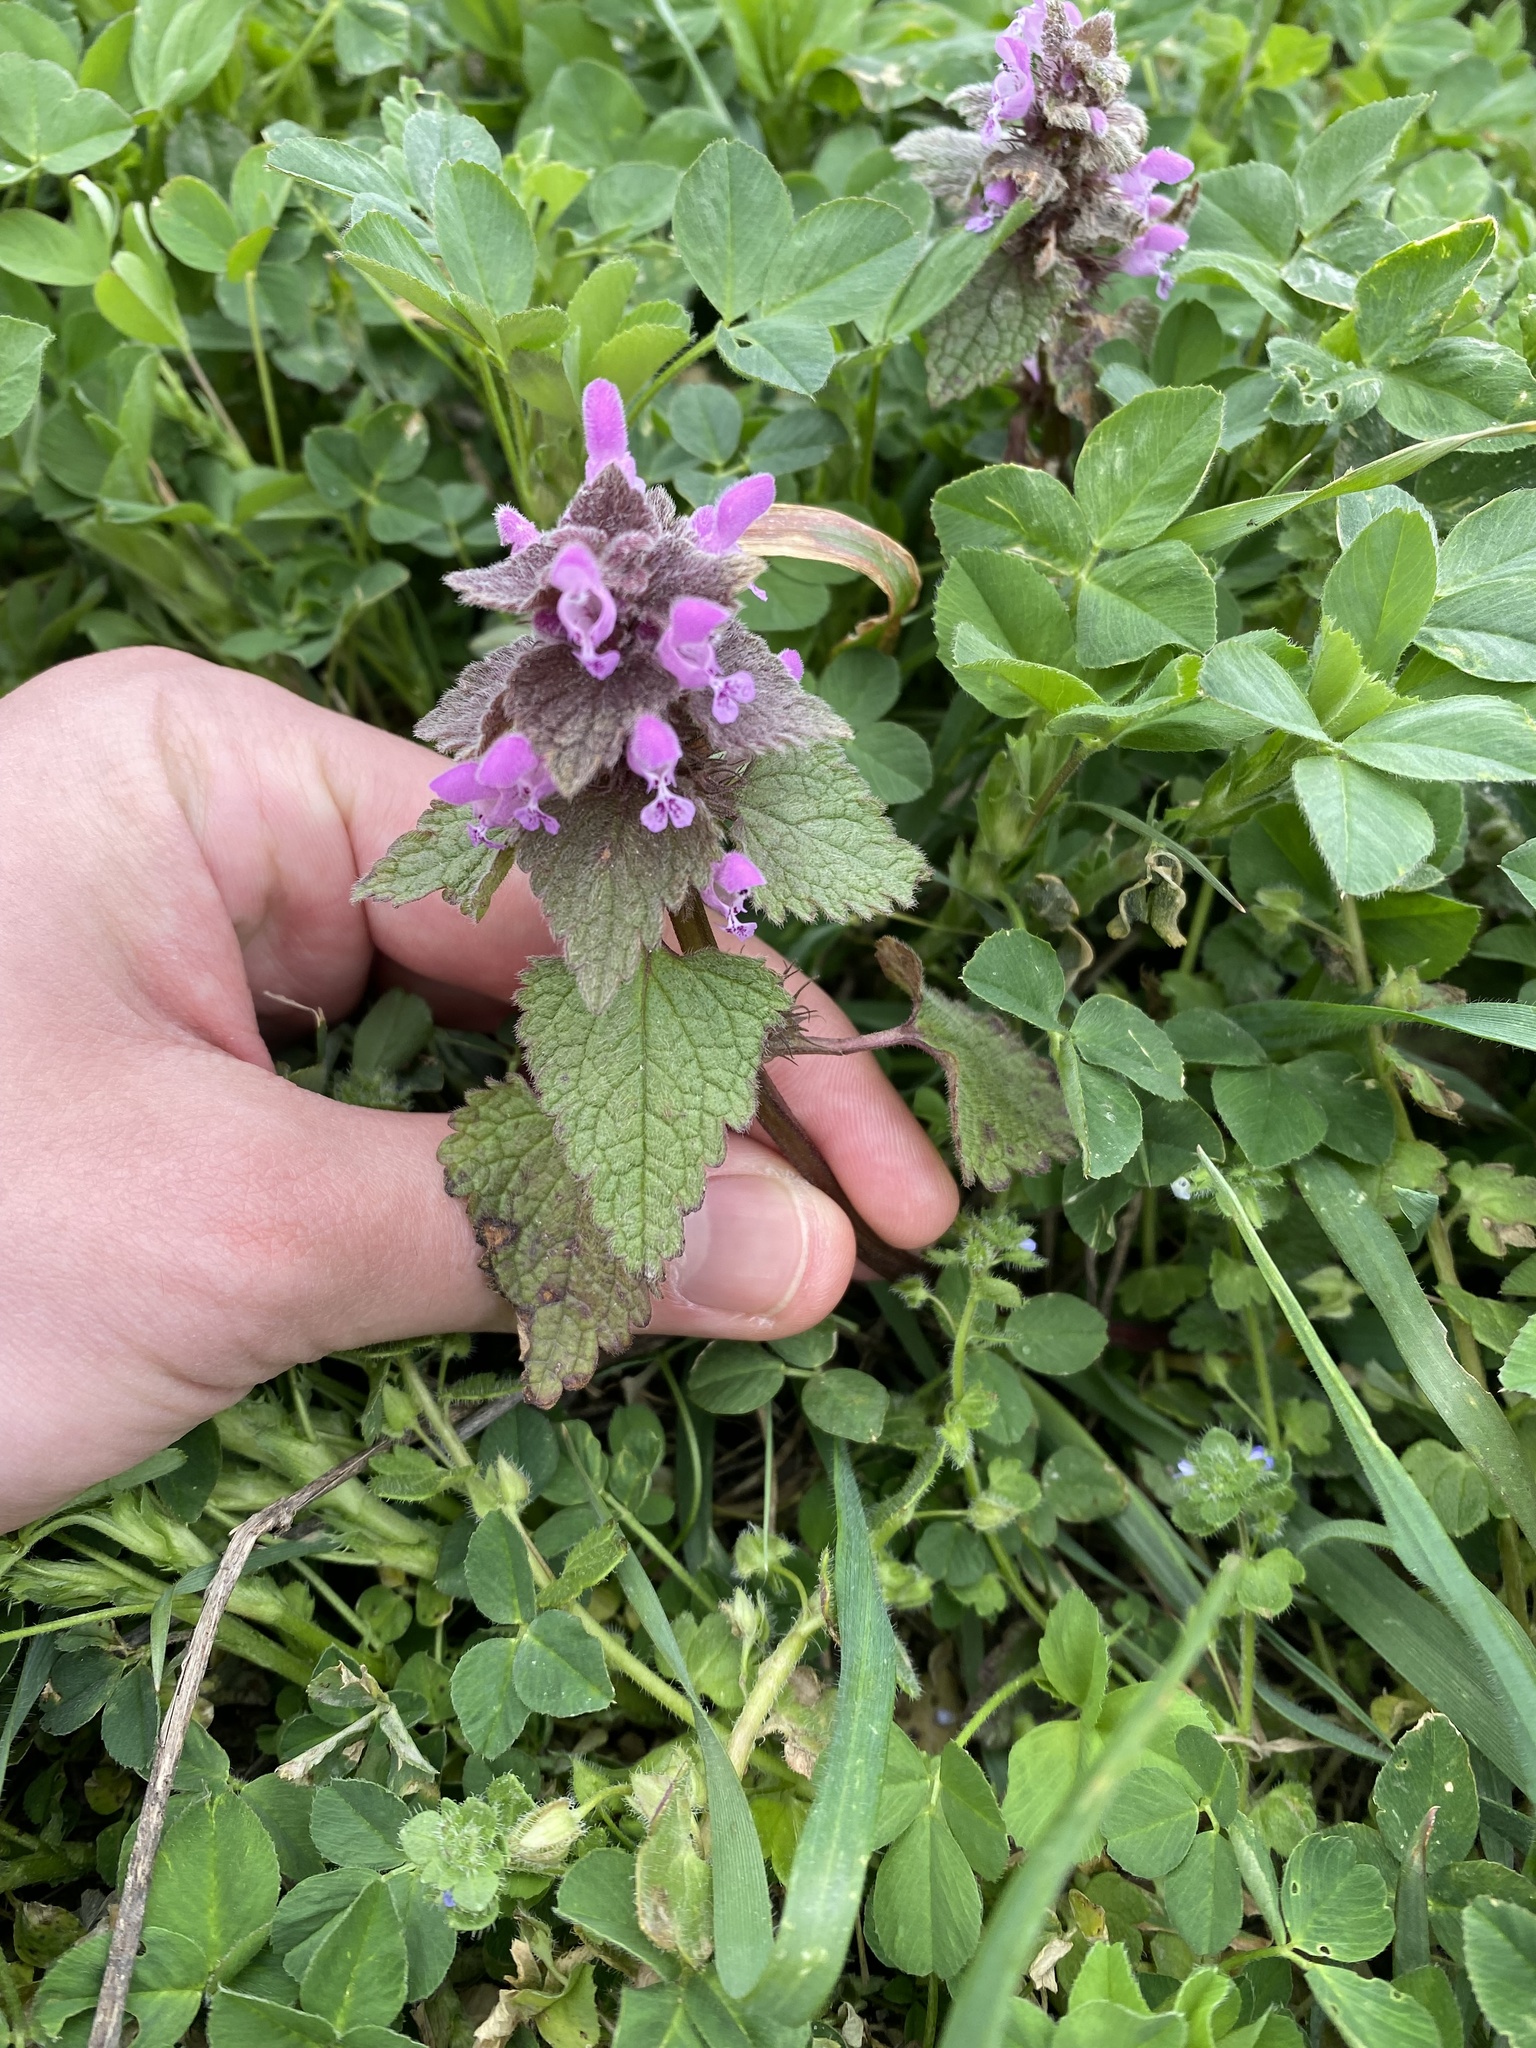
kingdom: Plantae
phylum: Tracheophyta
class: Magnoliopsida
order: Lamiales
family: Lamiaceae
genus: Lamium
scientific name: Lamium purpureum
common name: Red dead-nettle
